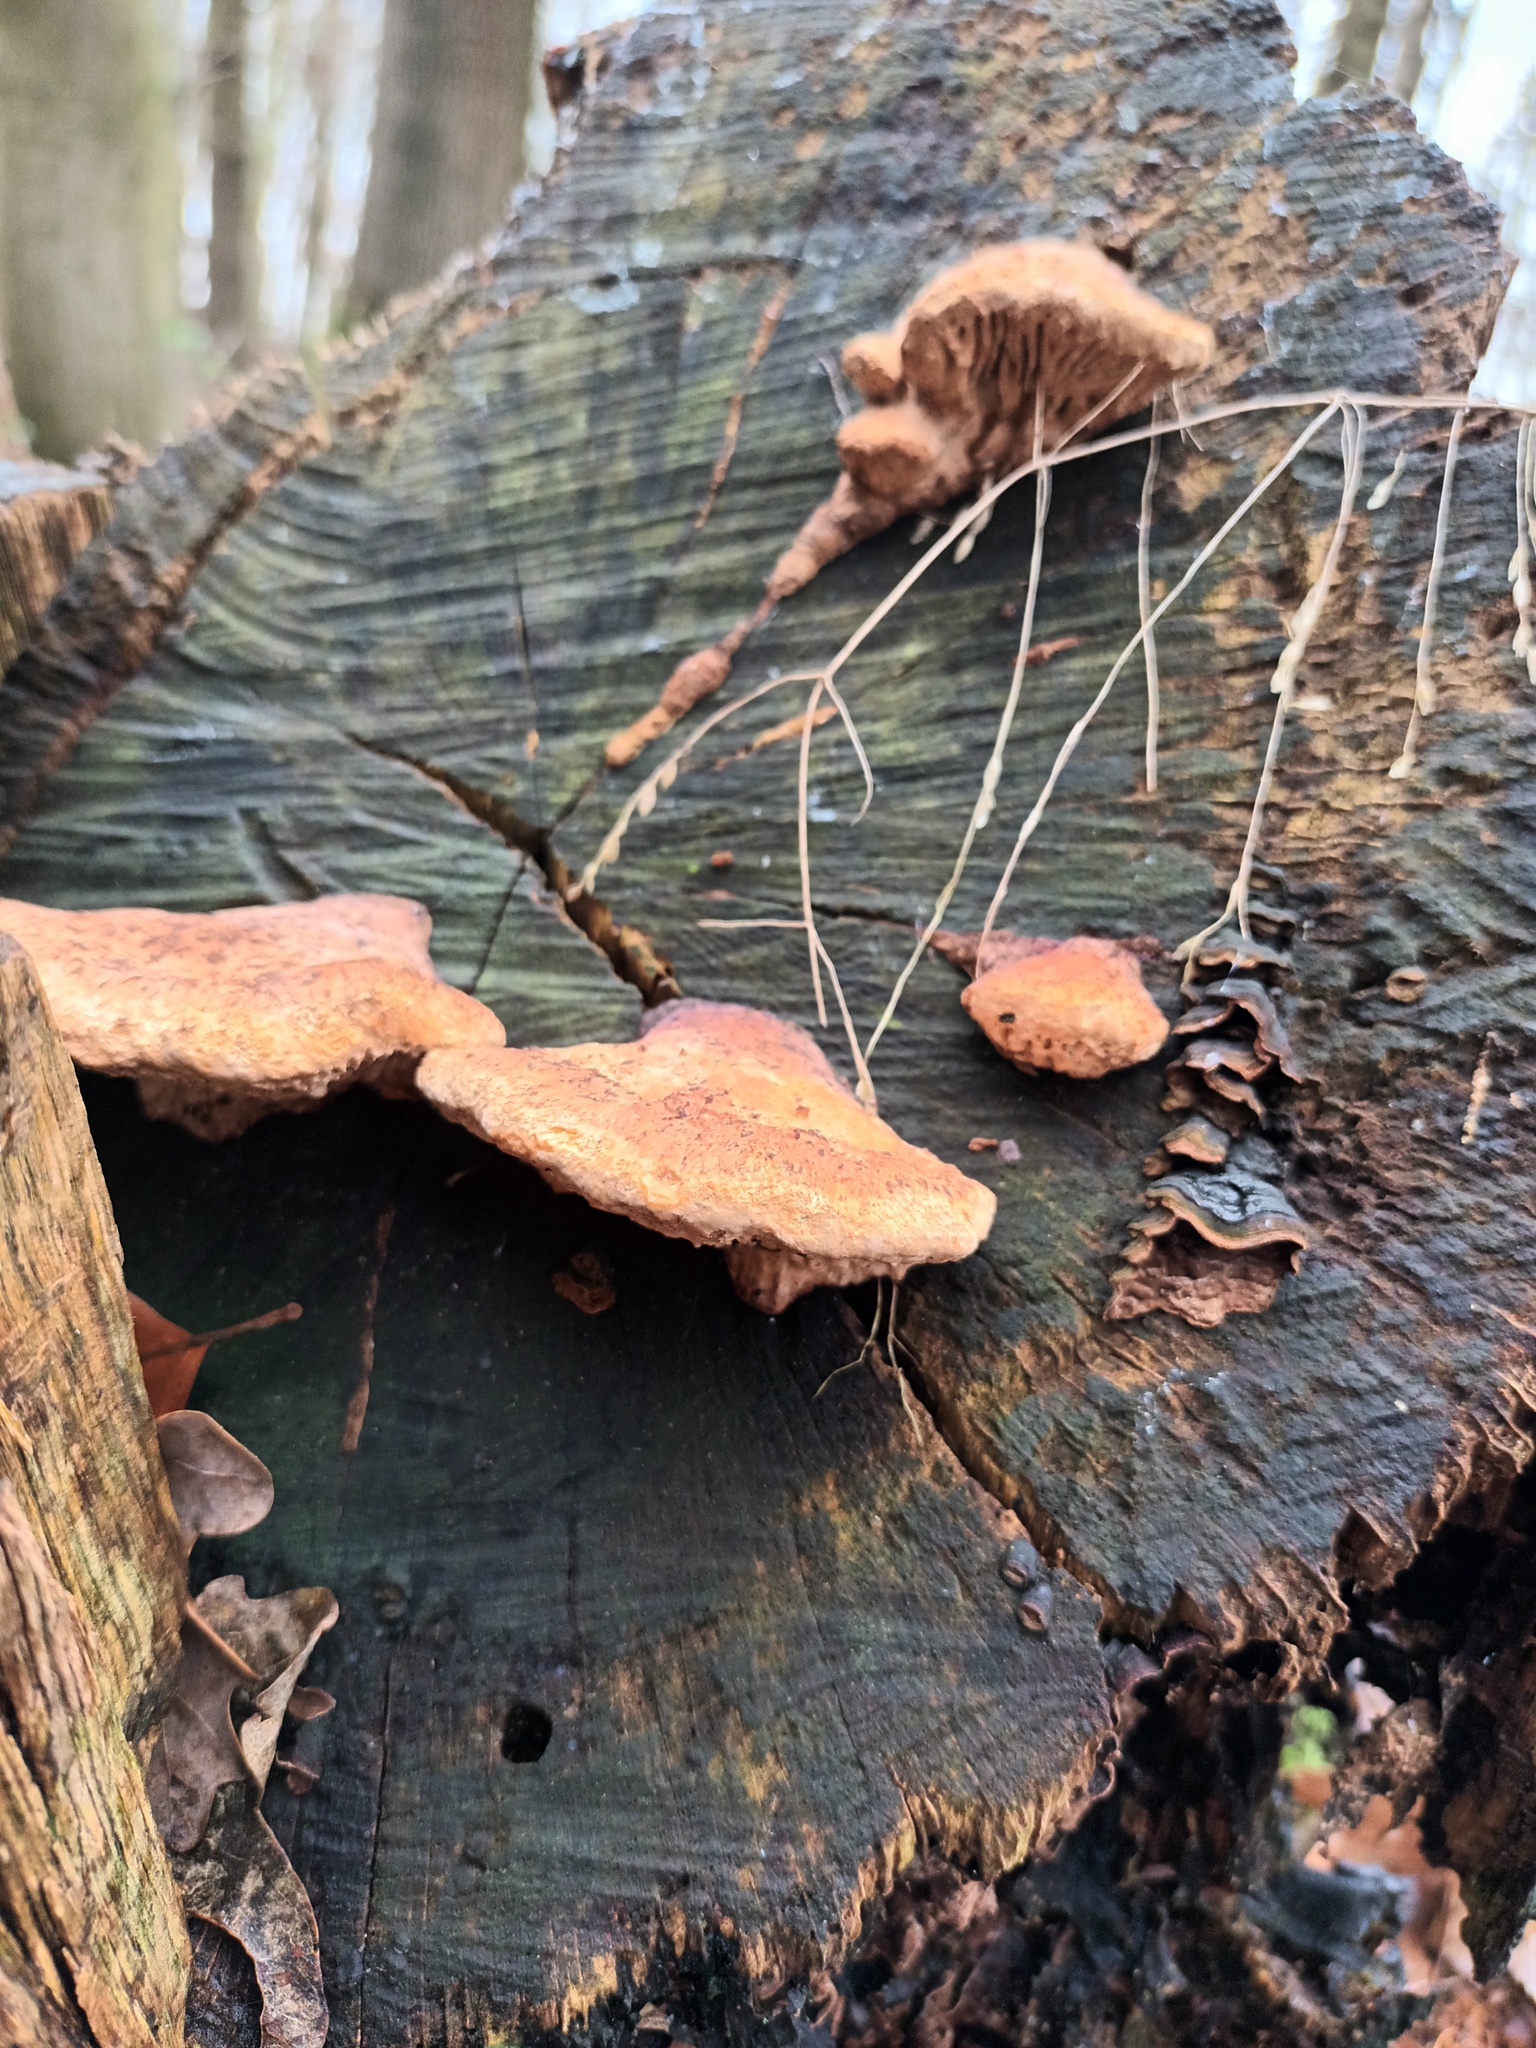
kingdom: Fungi
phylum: Basidiomycota
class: Agaricomycetes
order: Polyporales
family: Fomitopsidaceae
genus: Fomitopsis
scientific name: Fomitopsis
